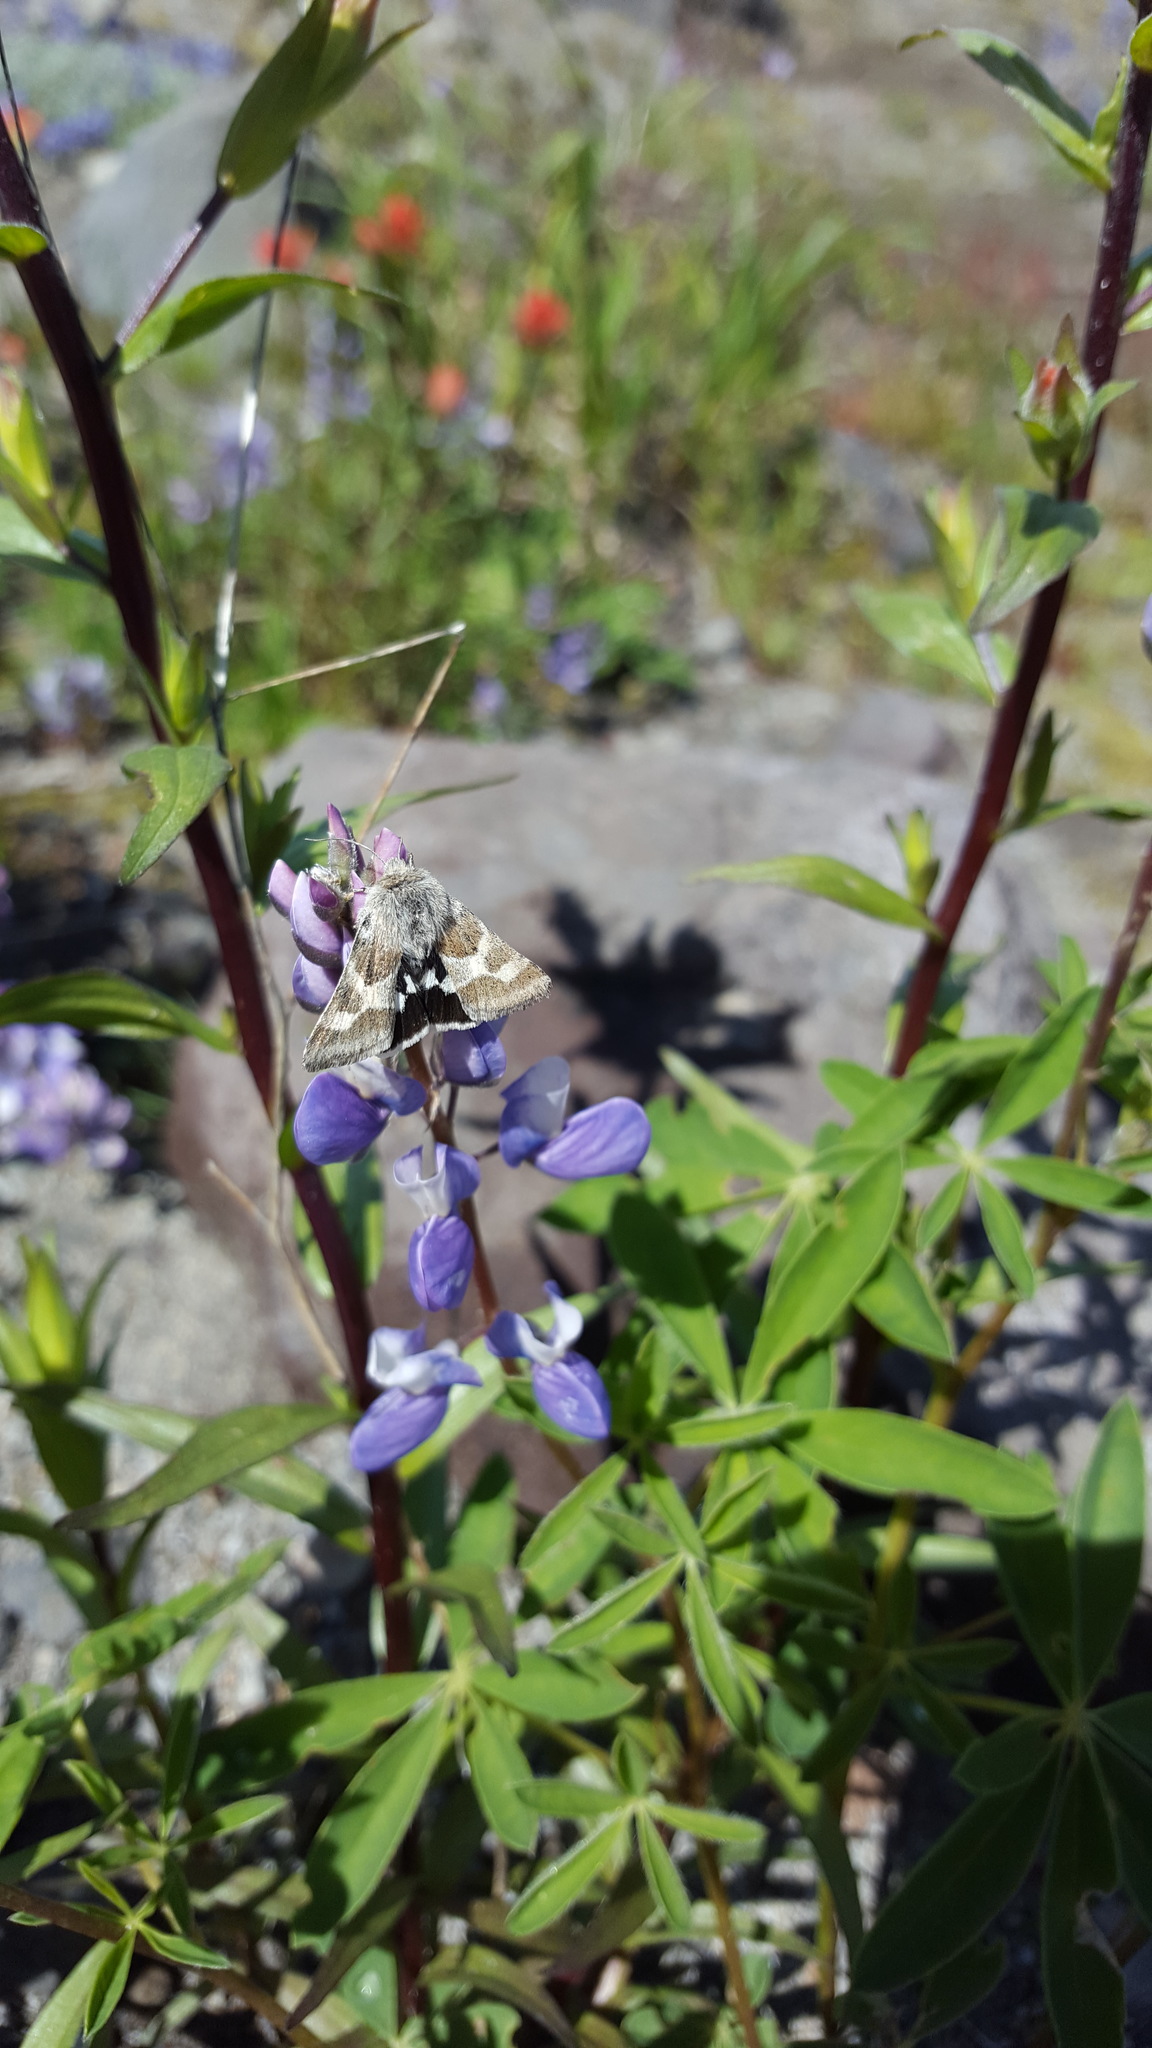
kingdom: Animalia
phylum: Arthropoda
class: Insecta
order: Lepidoptera
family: Noctuidae
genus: Schinia
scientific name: Schinia suetus
